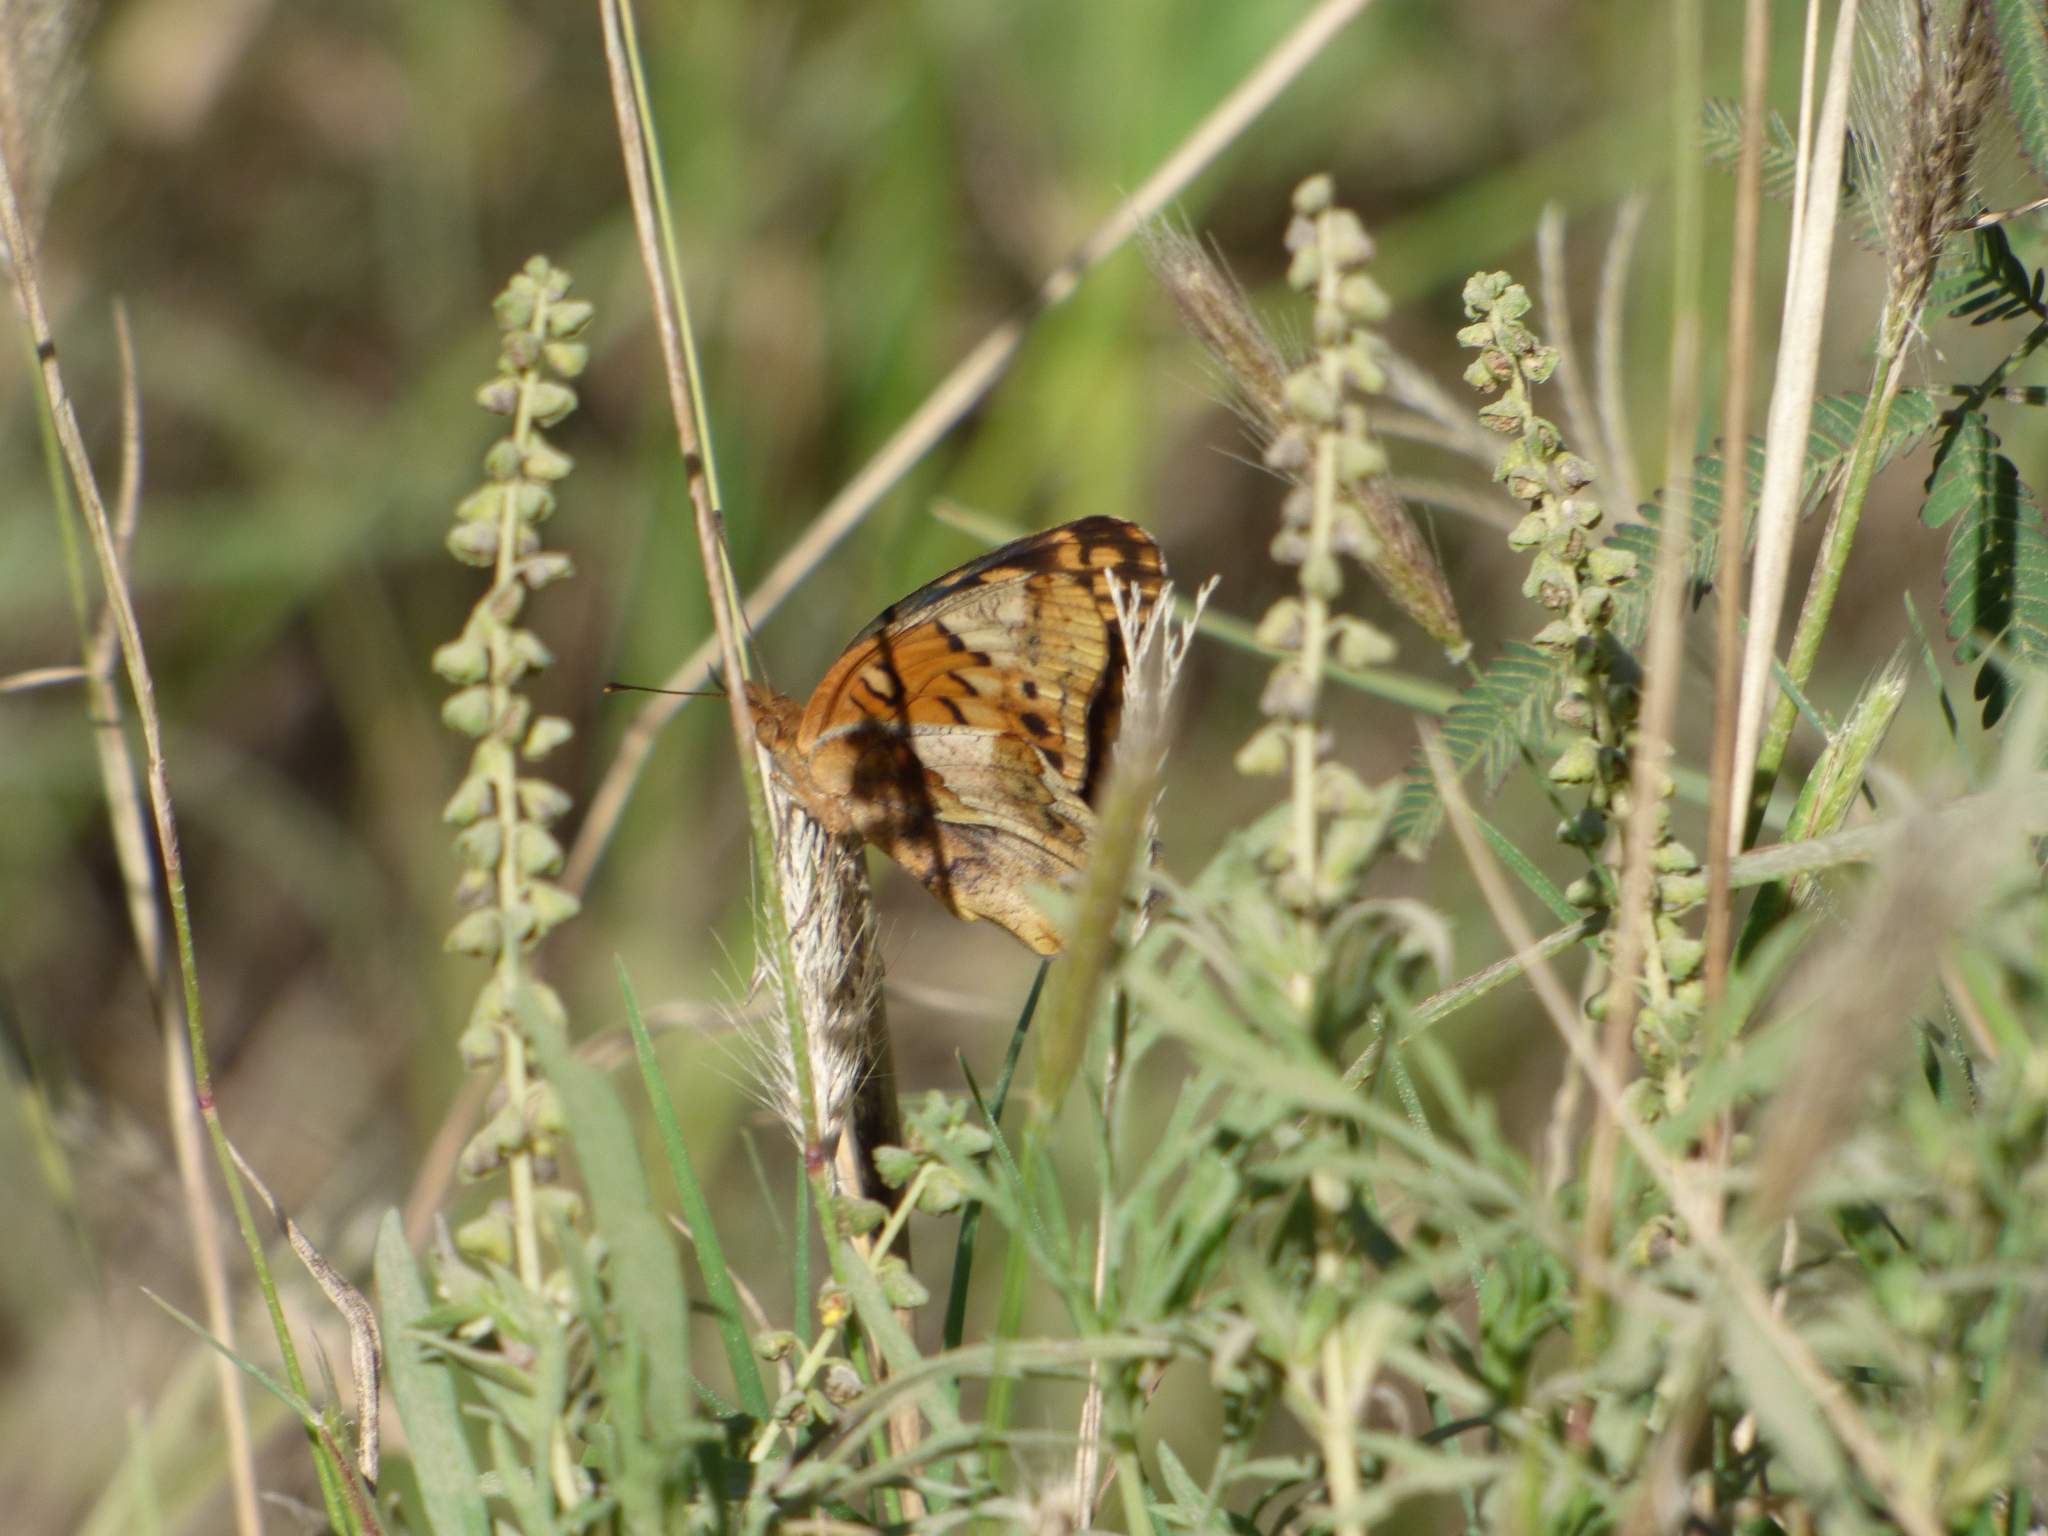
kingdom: Animalia
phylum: Arthropoda
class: Insecta
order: Lepidoptera
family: Nymphalidae
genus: Euptoieta
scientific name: Euptoieta hortensia
